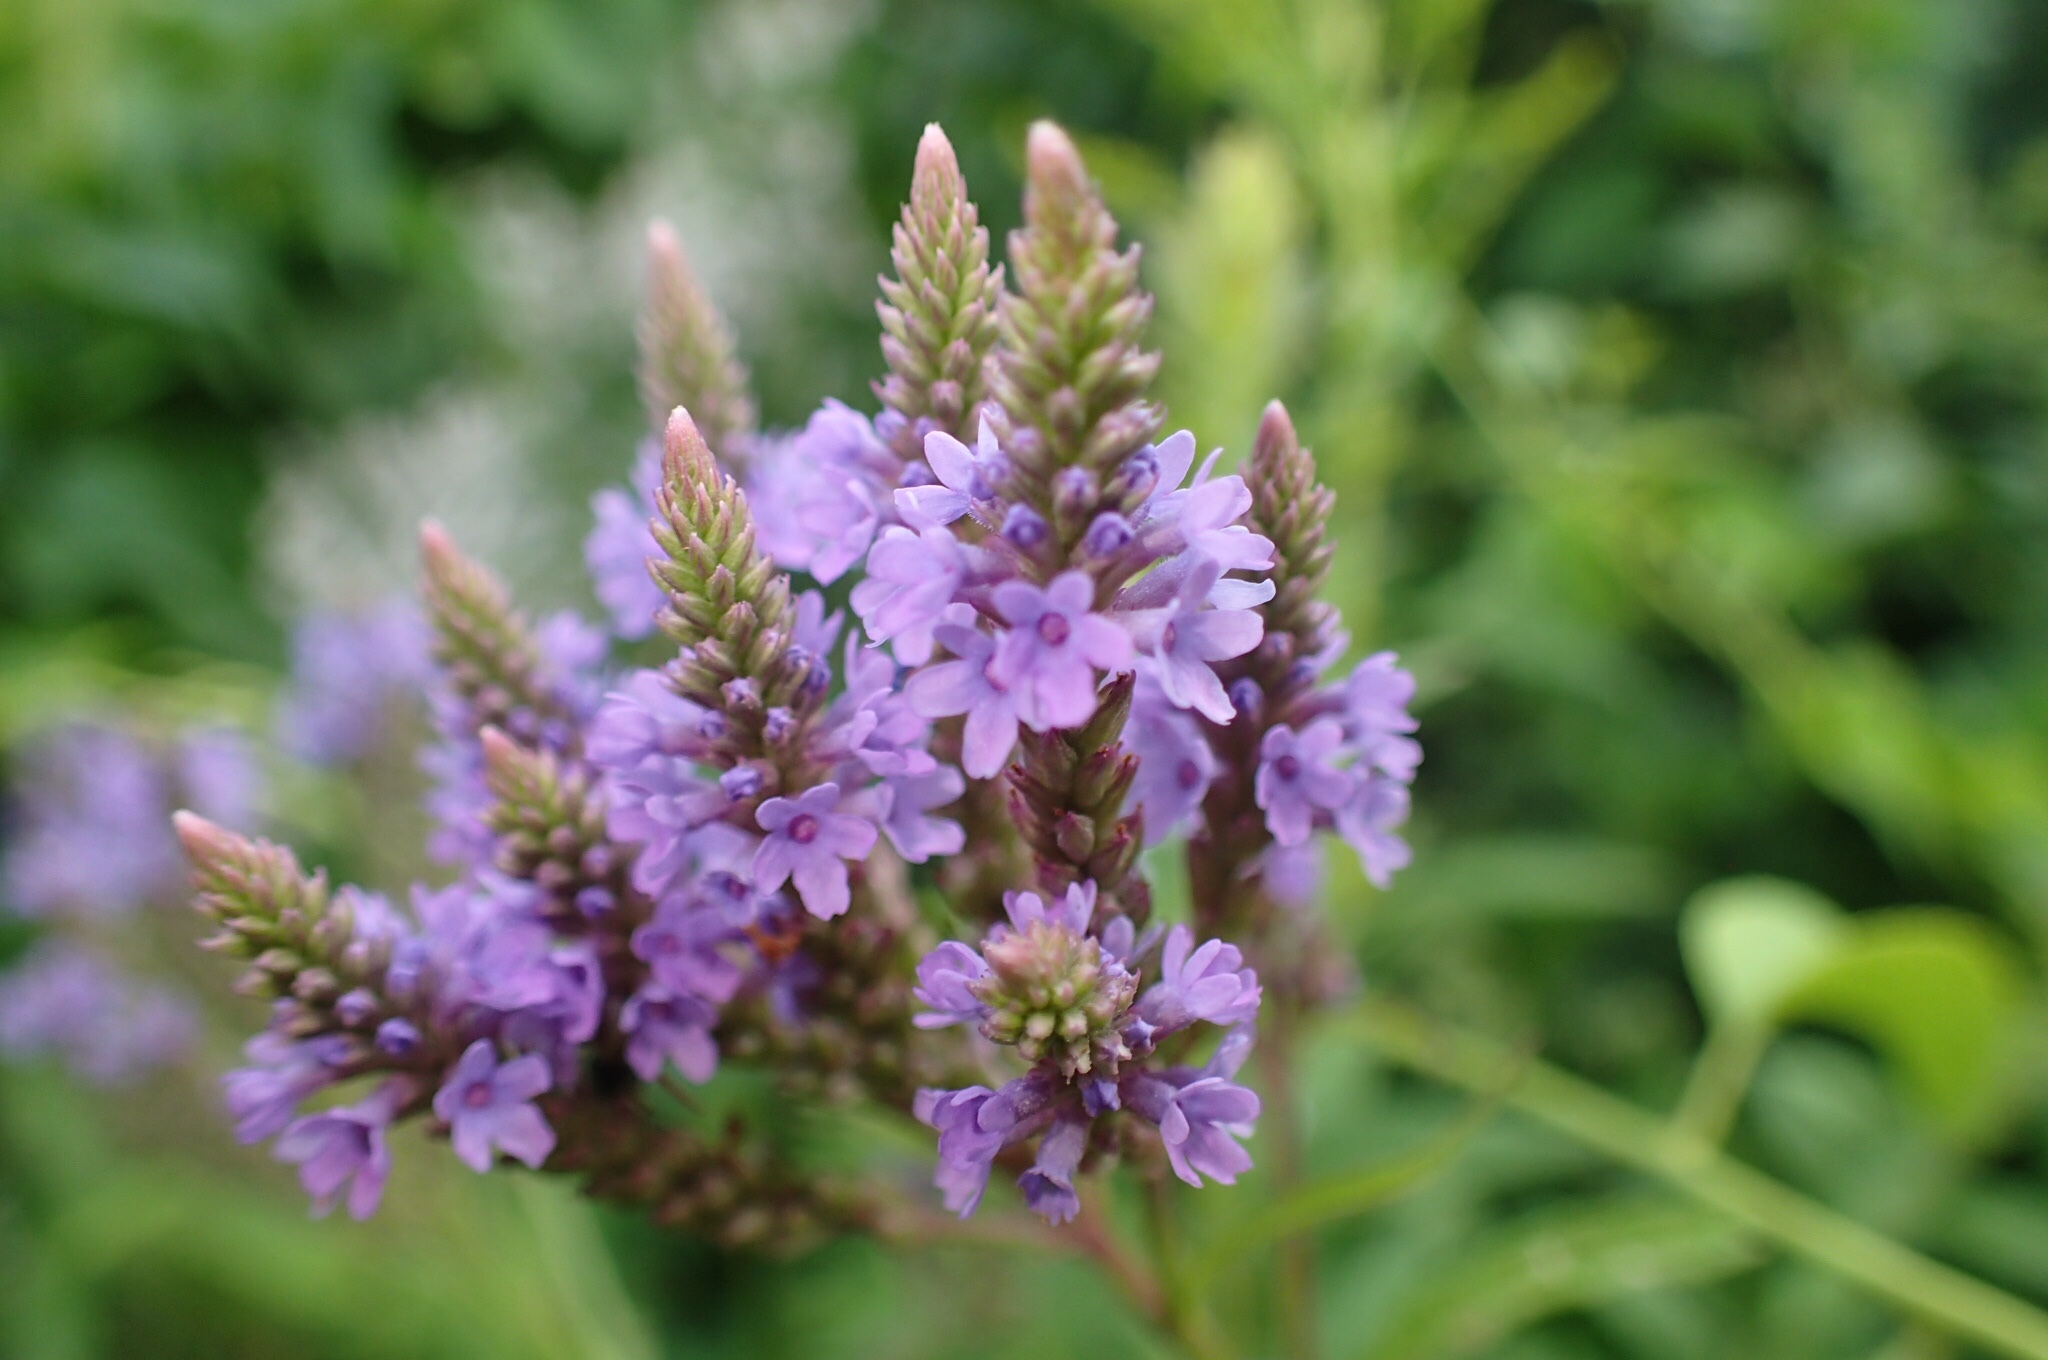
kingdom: Plantae
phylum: Tracheophyta
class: Magnoliopsida
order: Lamiales
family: Verbenaceae
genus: Verbena
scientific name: Verbena hastata
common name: American blue vervain
